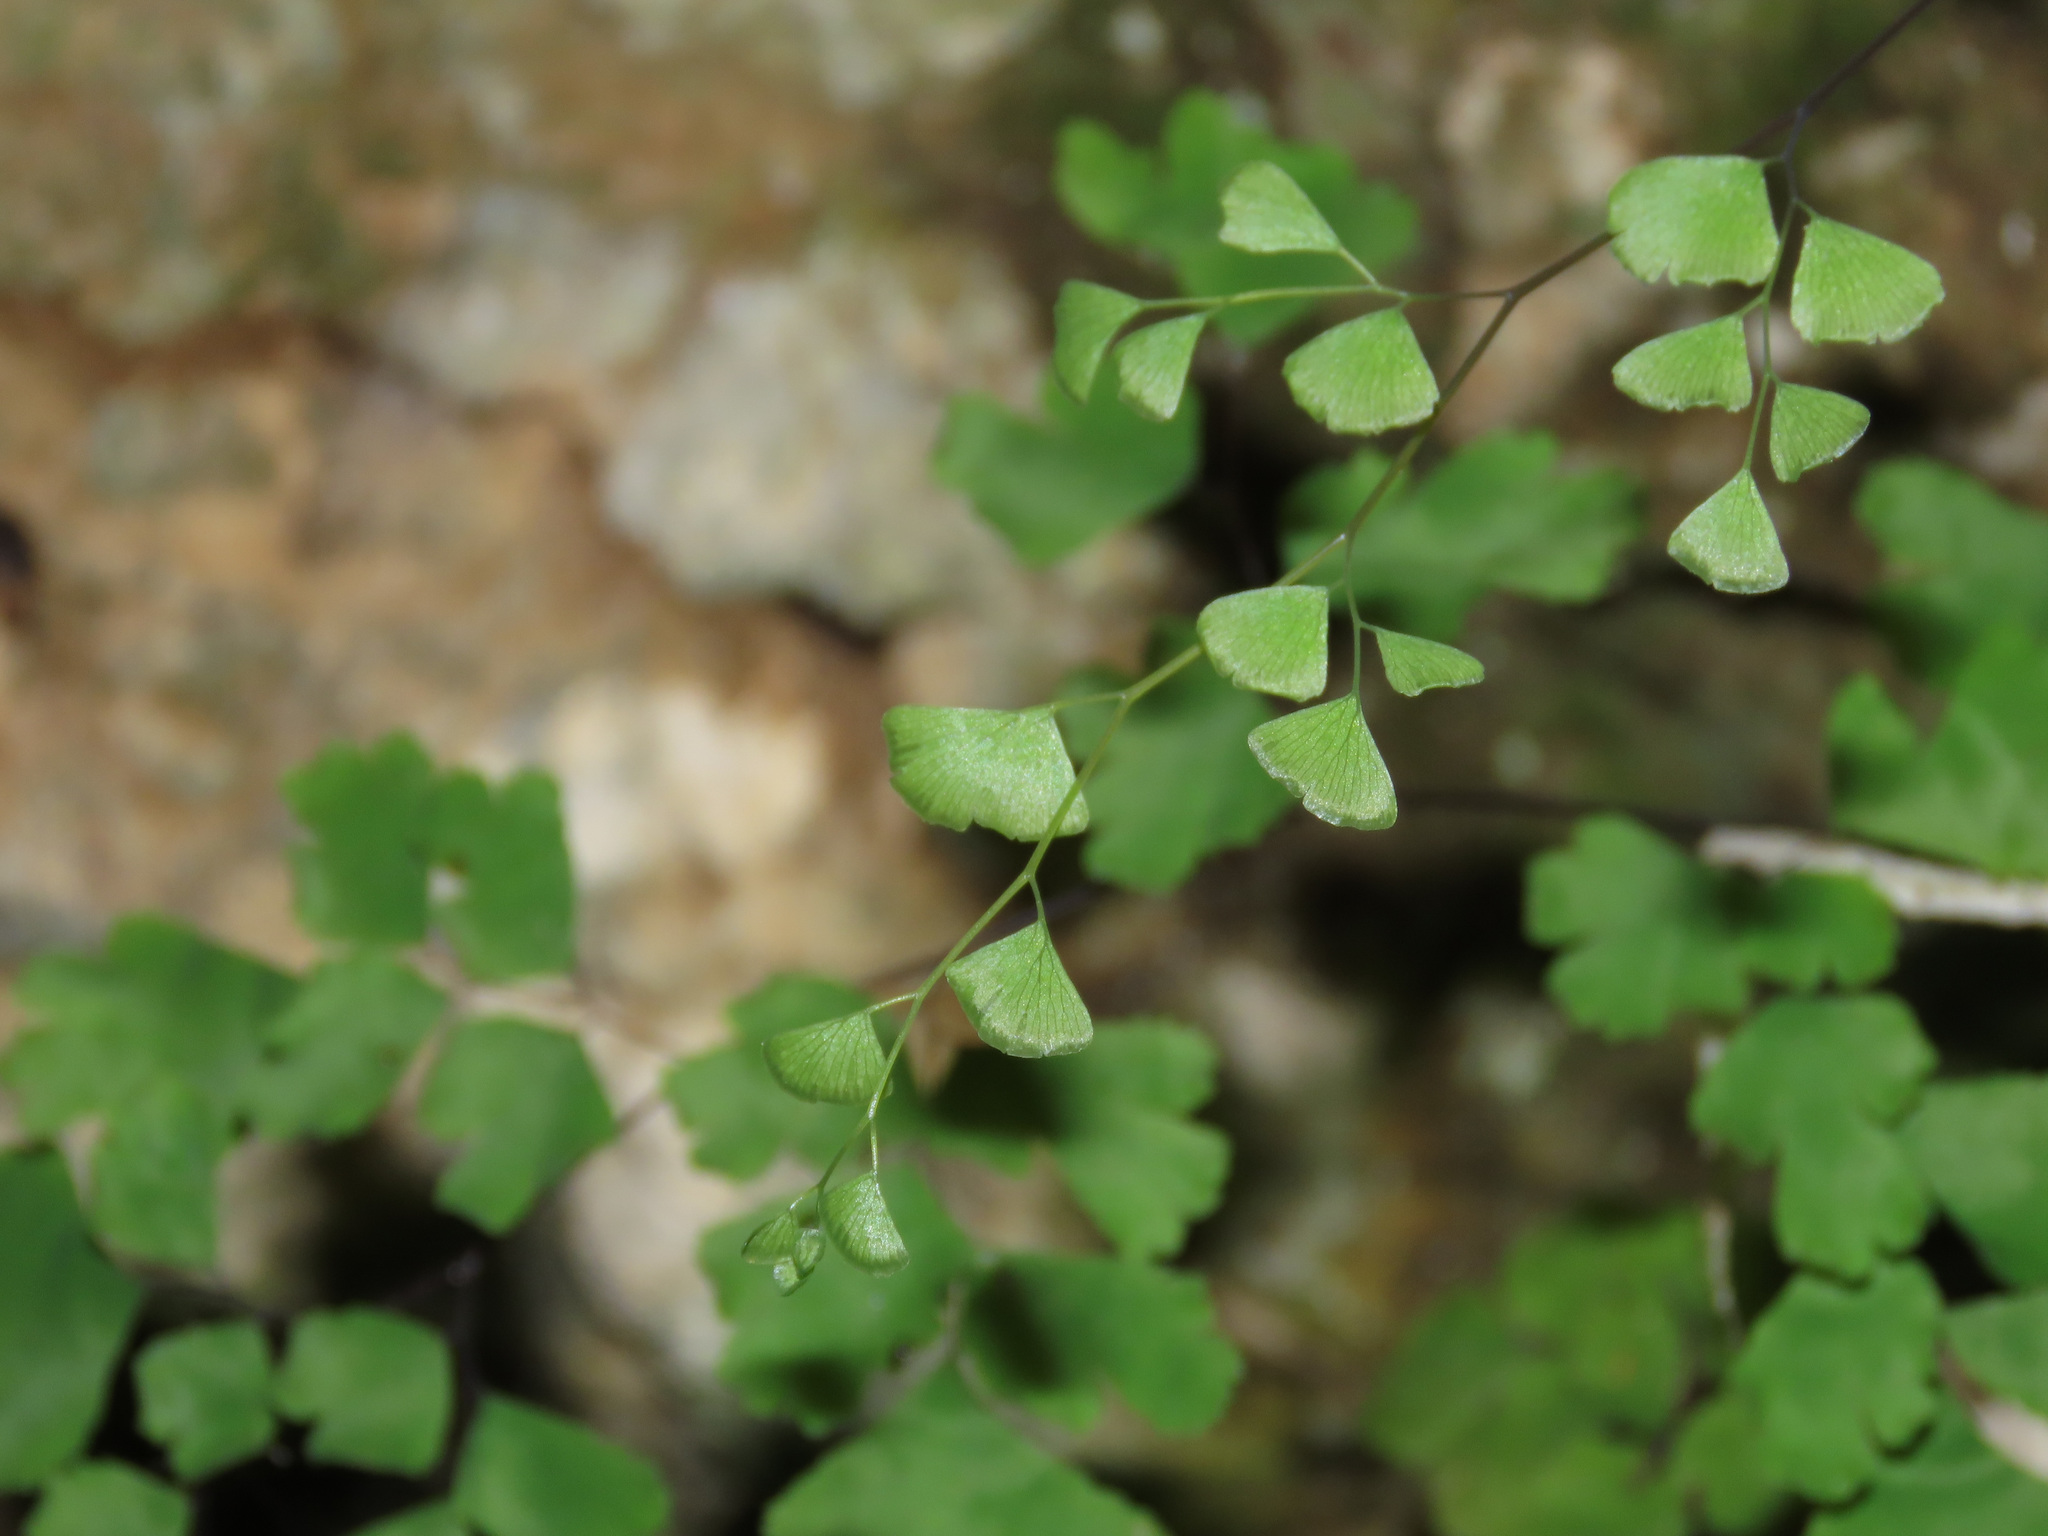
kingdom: Plantae
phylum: Tracheophyta
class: Polypodiopsida
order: Polypodiales
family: Pteridaceae
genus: Adiantum
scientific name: Adiantum capillus-veneris
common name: Maidenhair fern
